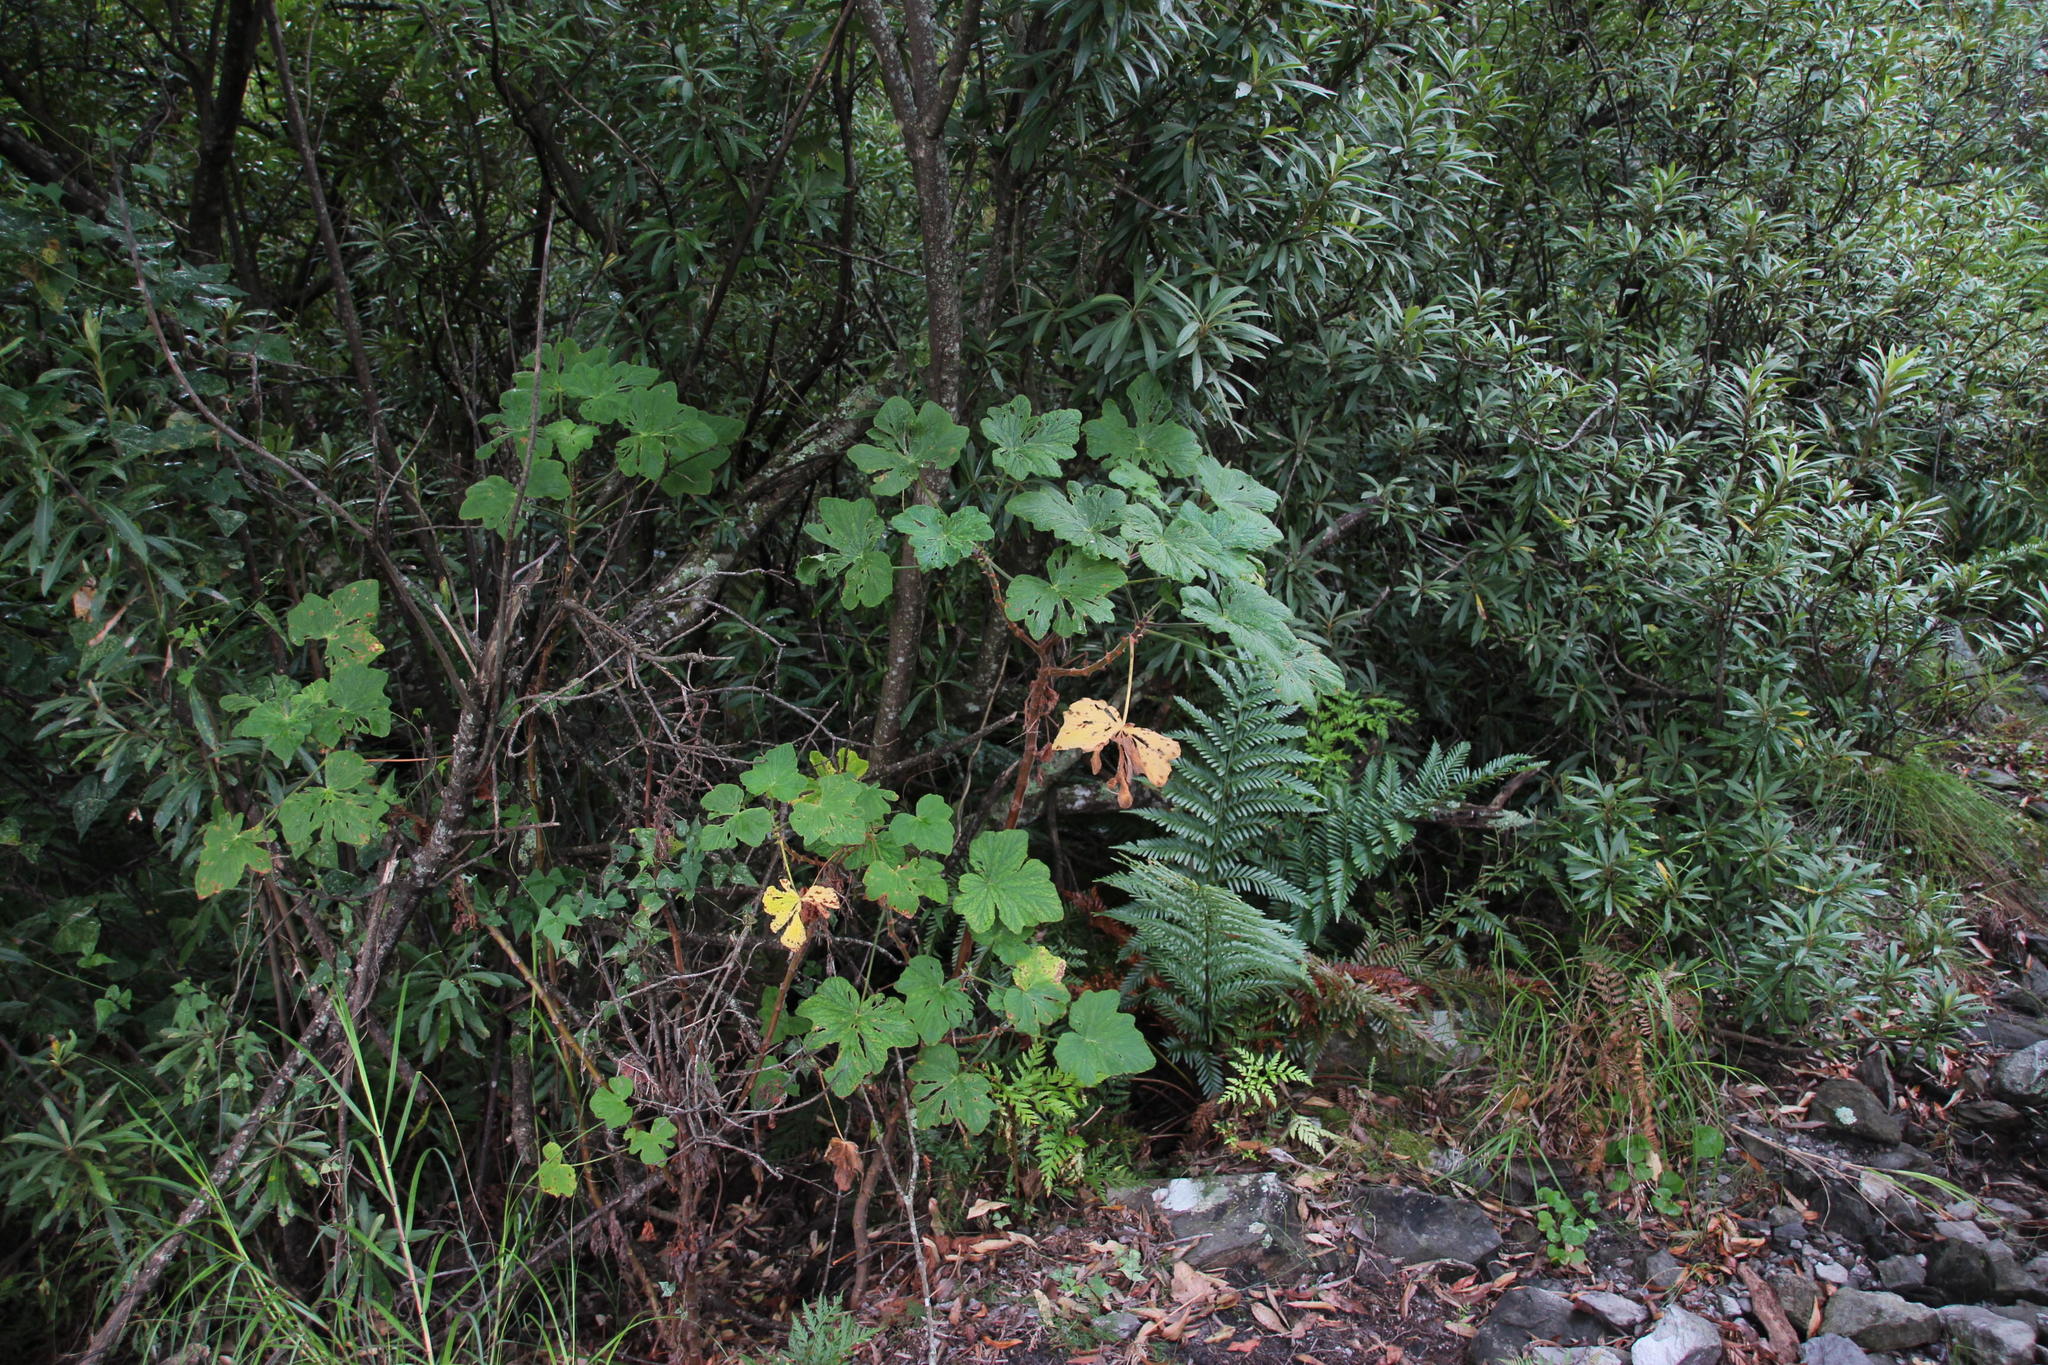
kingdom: Plantae
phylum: Tracheophyta
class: Magnoliopsida
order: Geraniales
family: Geraniaceae
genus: Pelargonium
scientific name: Pelargonium papilionaceum
